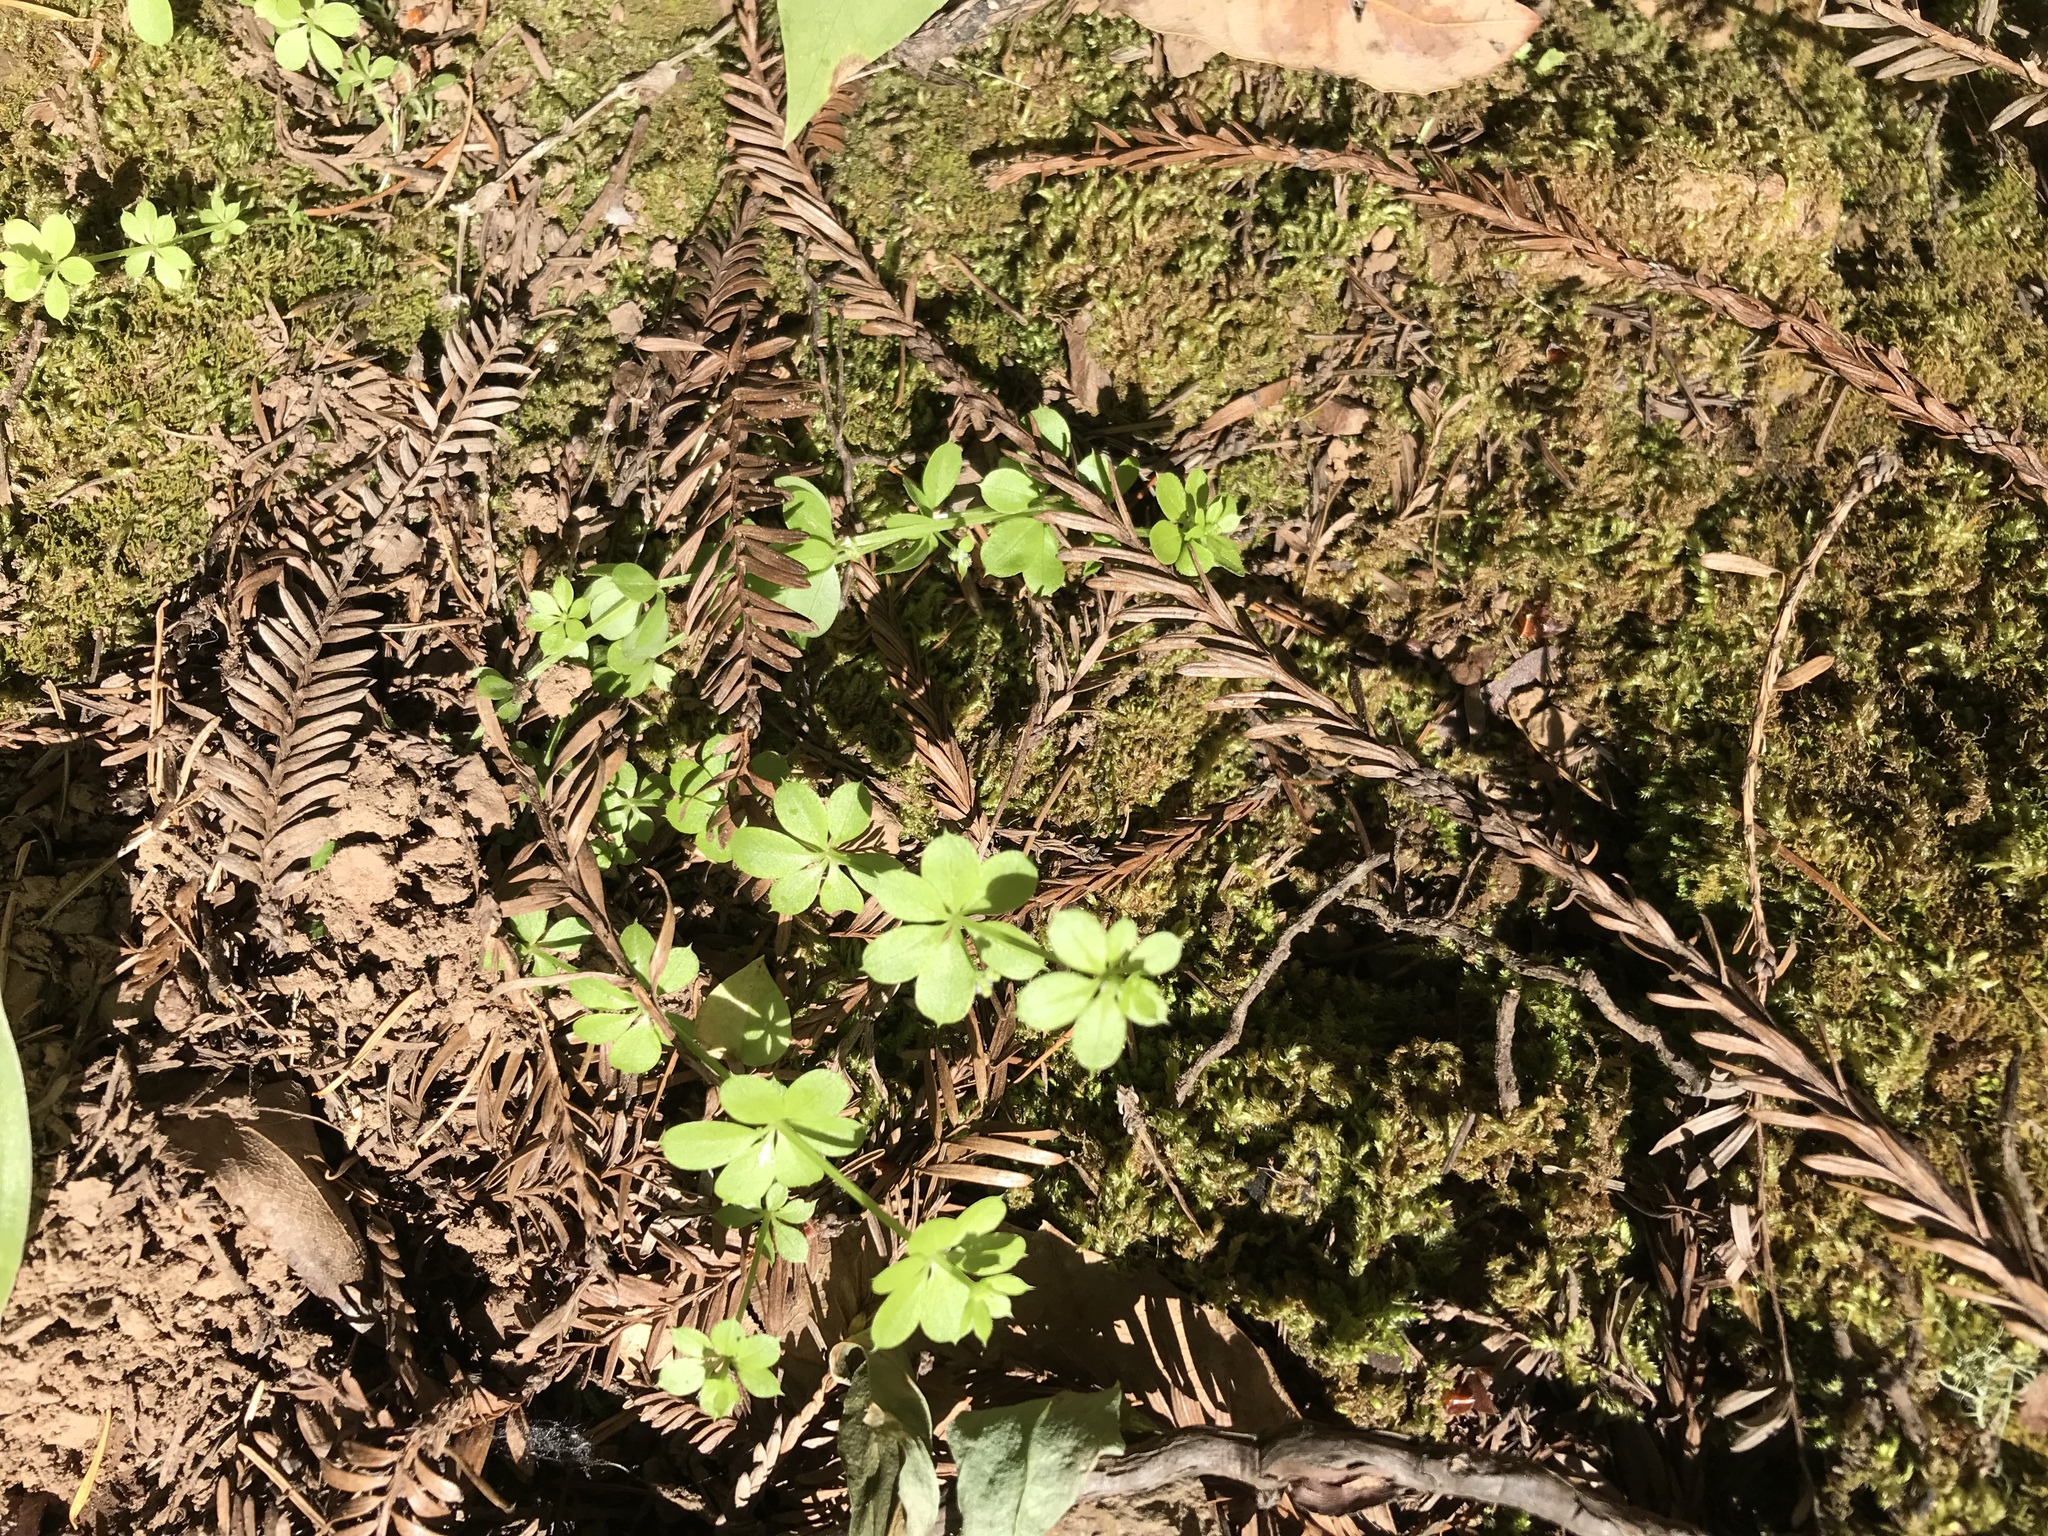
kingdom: Plantae
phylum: Tracheophyta
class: Magnoliopsida
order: Gentianales
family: Rubiaceae
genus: Galium
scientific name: Galium triflorum
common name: Fragrant bedstraw
